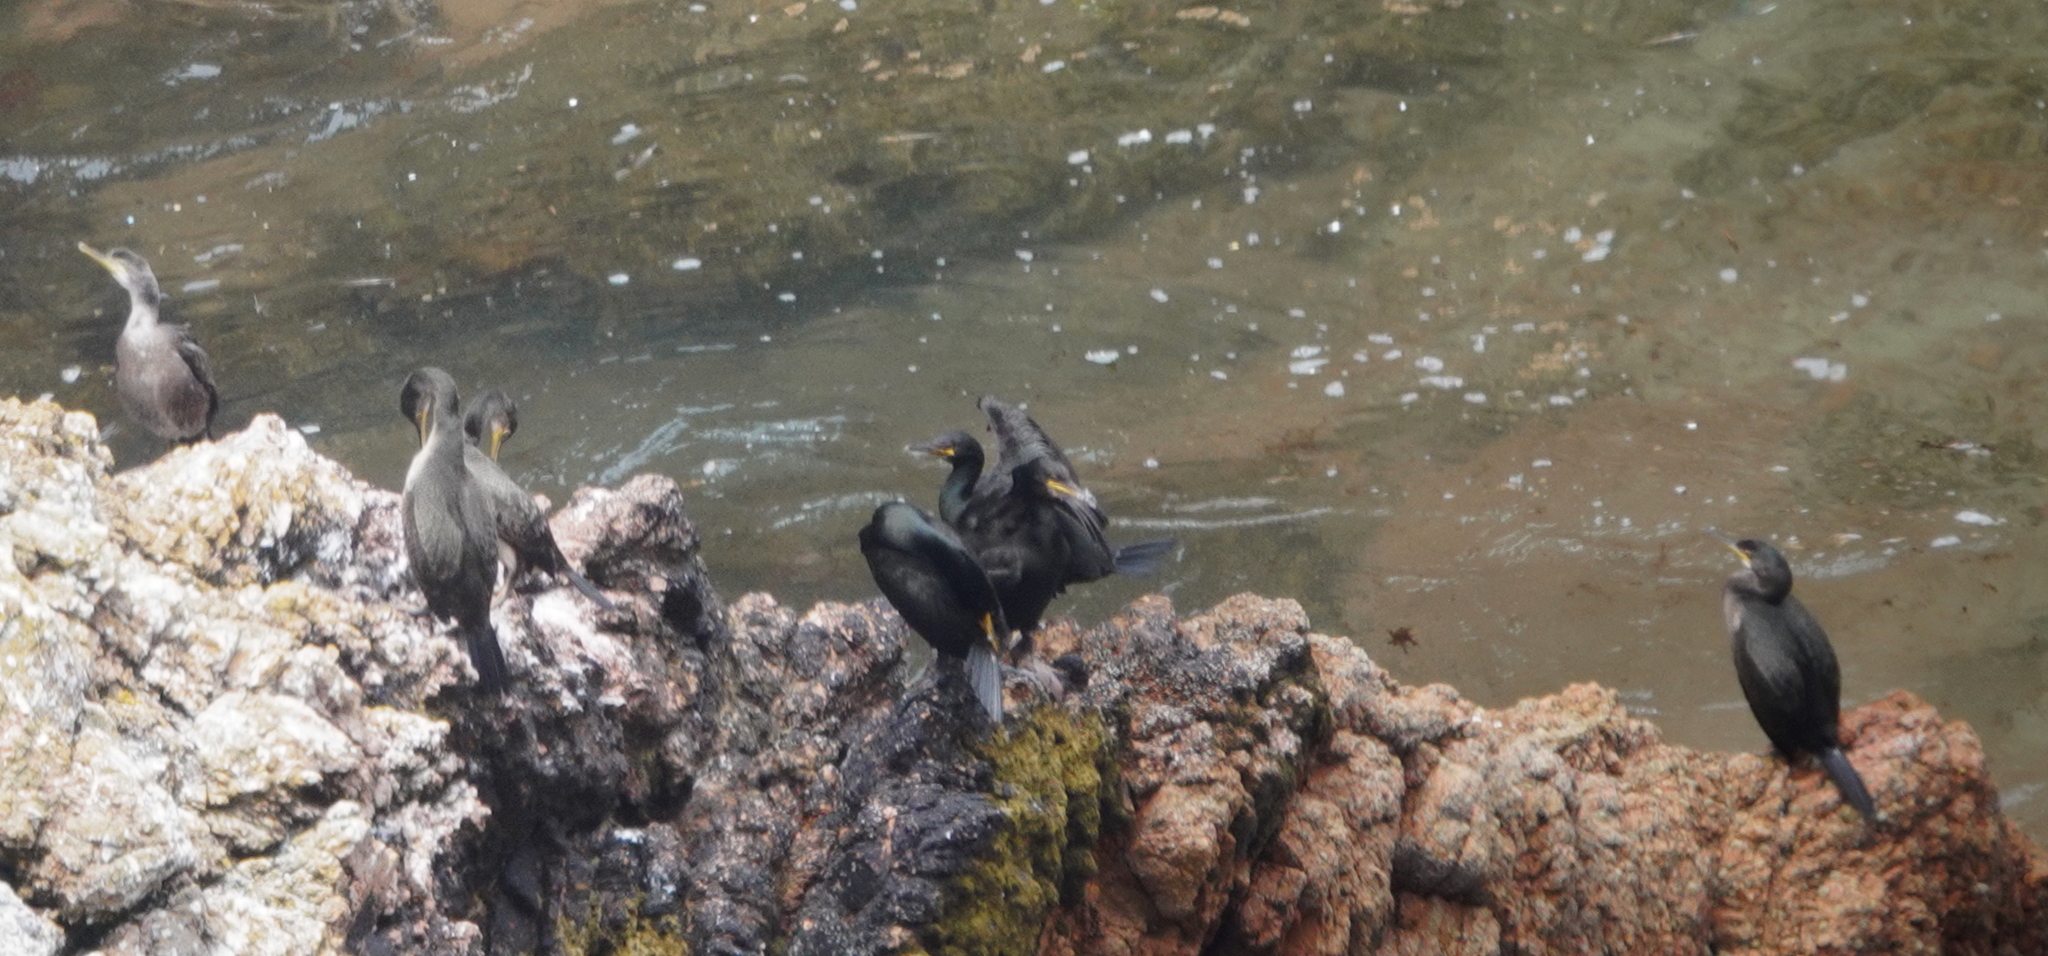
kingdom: Animalia
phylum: Chordata
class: Aves
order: Suliformes
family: Phalacrocoracidae
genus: Phalacrocorax
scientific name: Phalacrocorax aristotelis
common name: European shag
